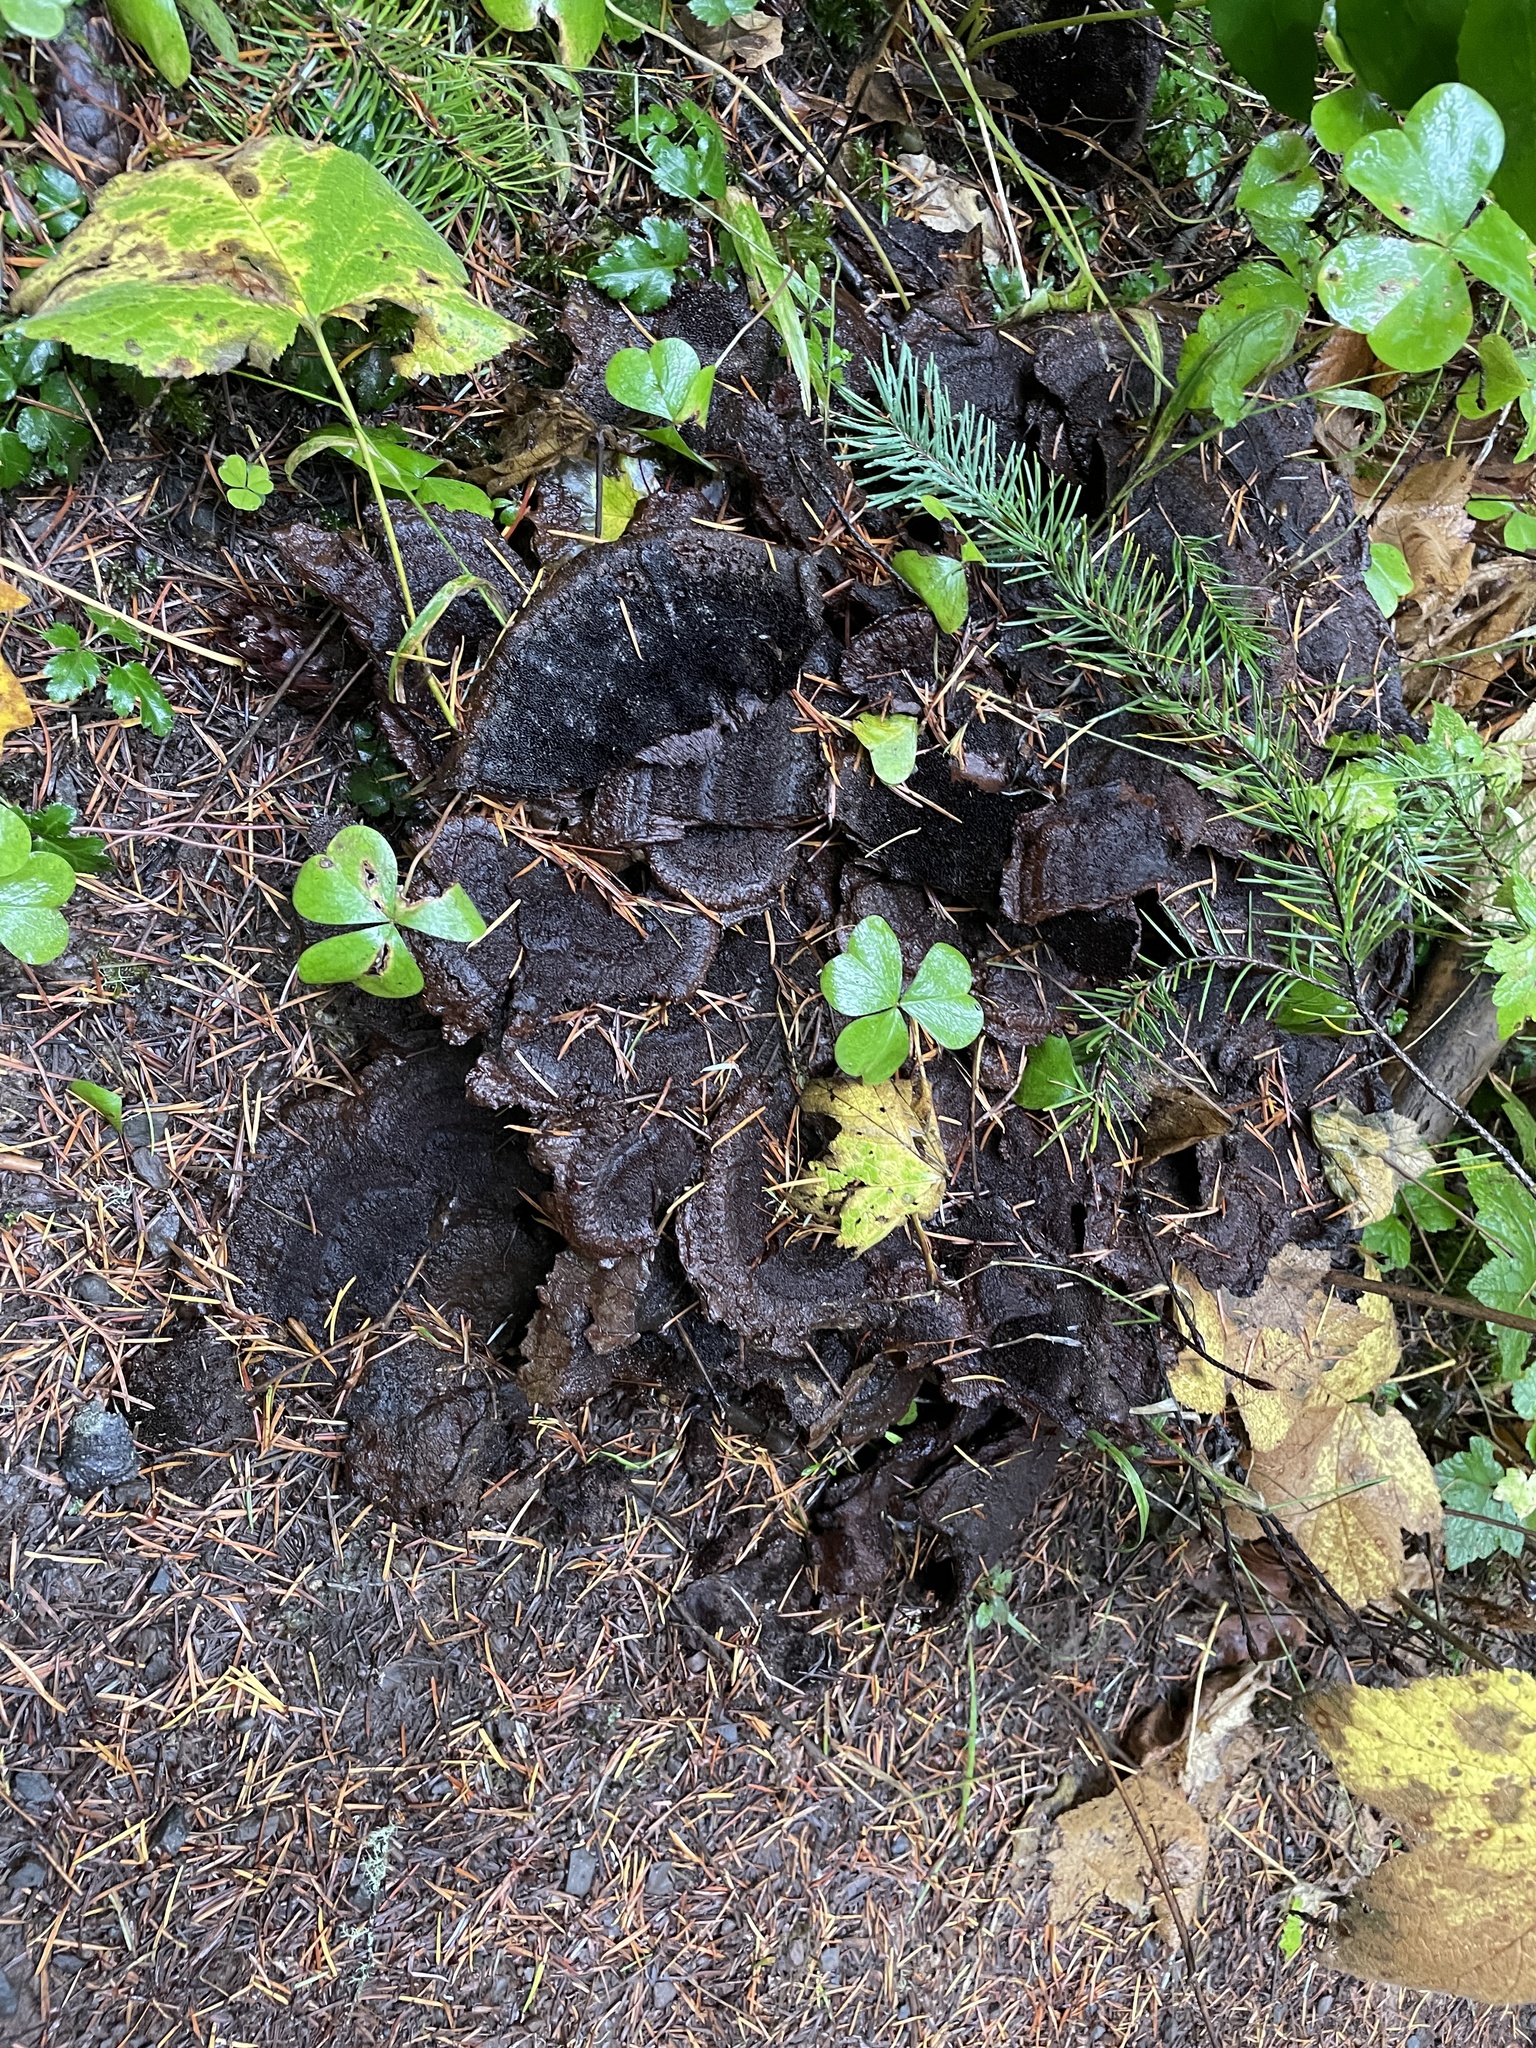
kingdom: Fungi
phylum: Basidiomycota
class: Agaricomycetes
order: Polyporales
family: Laetiporaceae
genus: Phaeolus
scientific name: Phaeolus schweinitzii
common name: Dyer's mazegill
